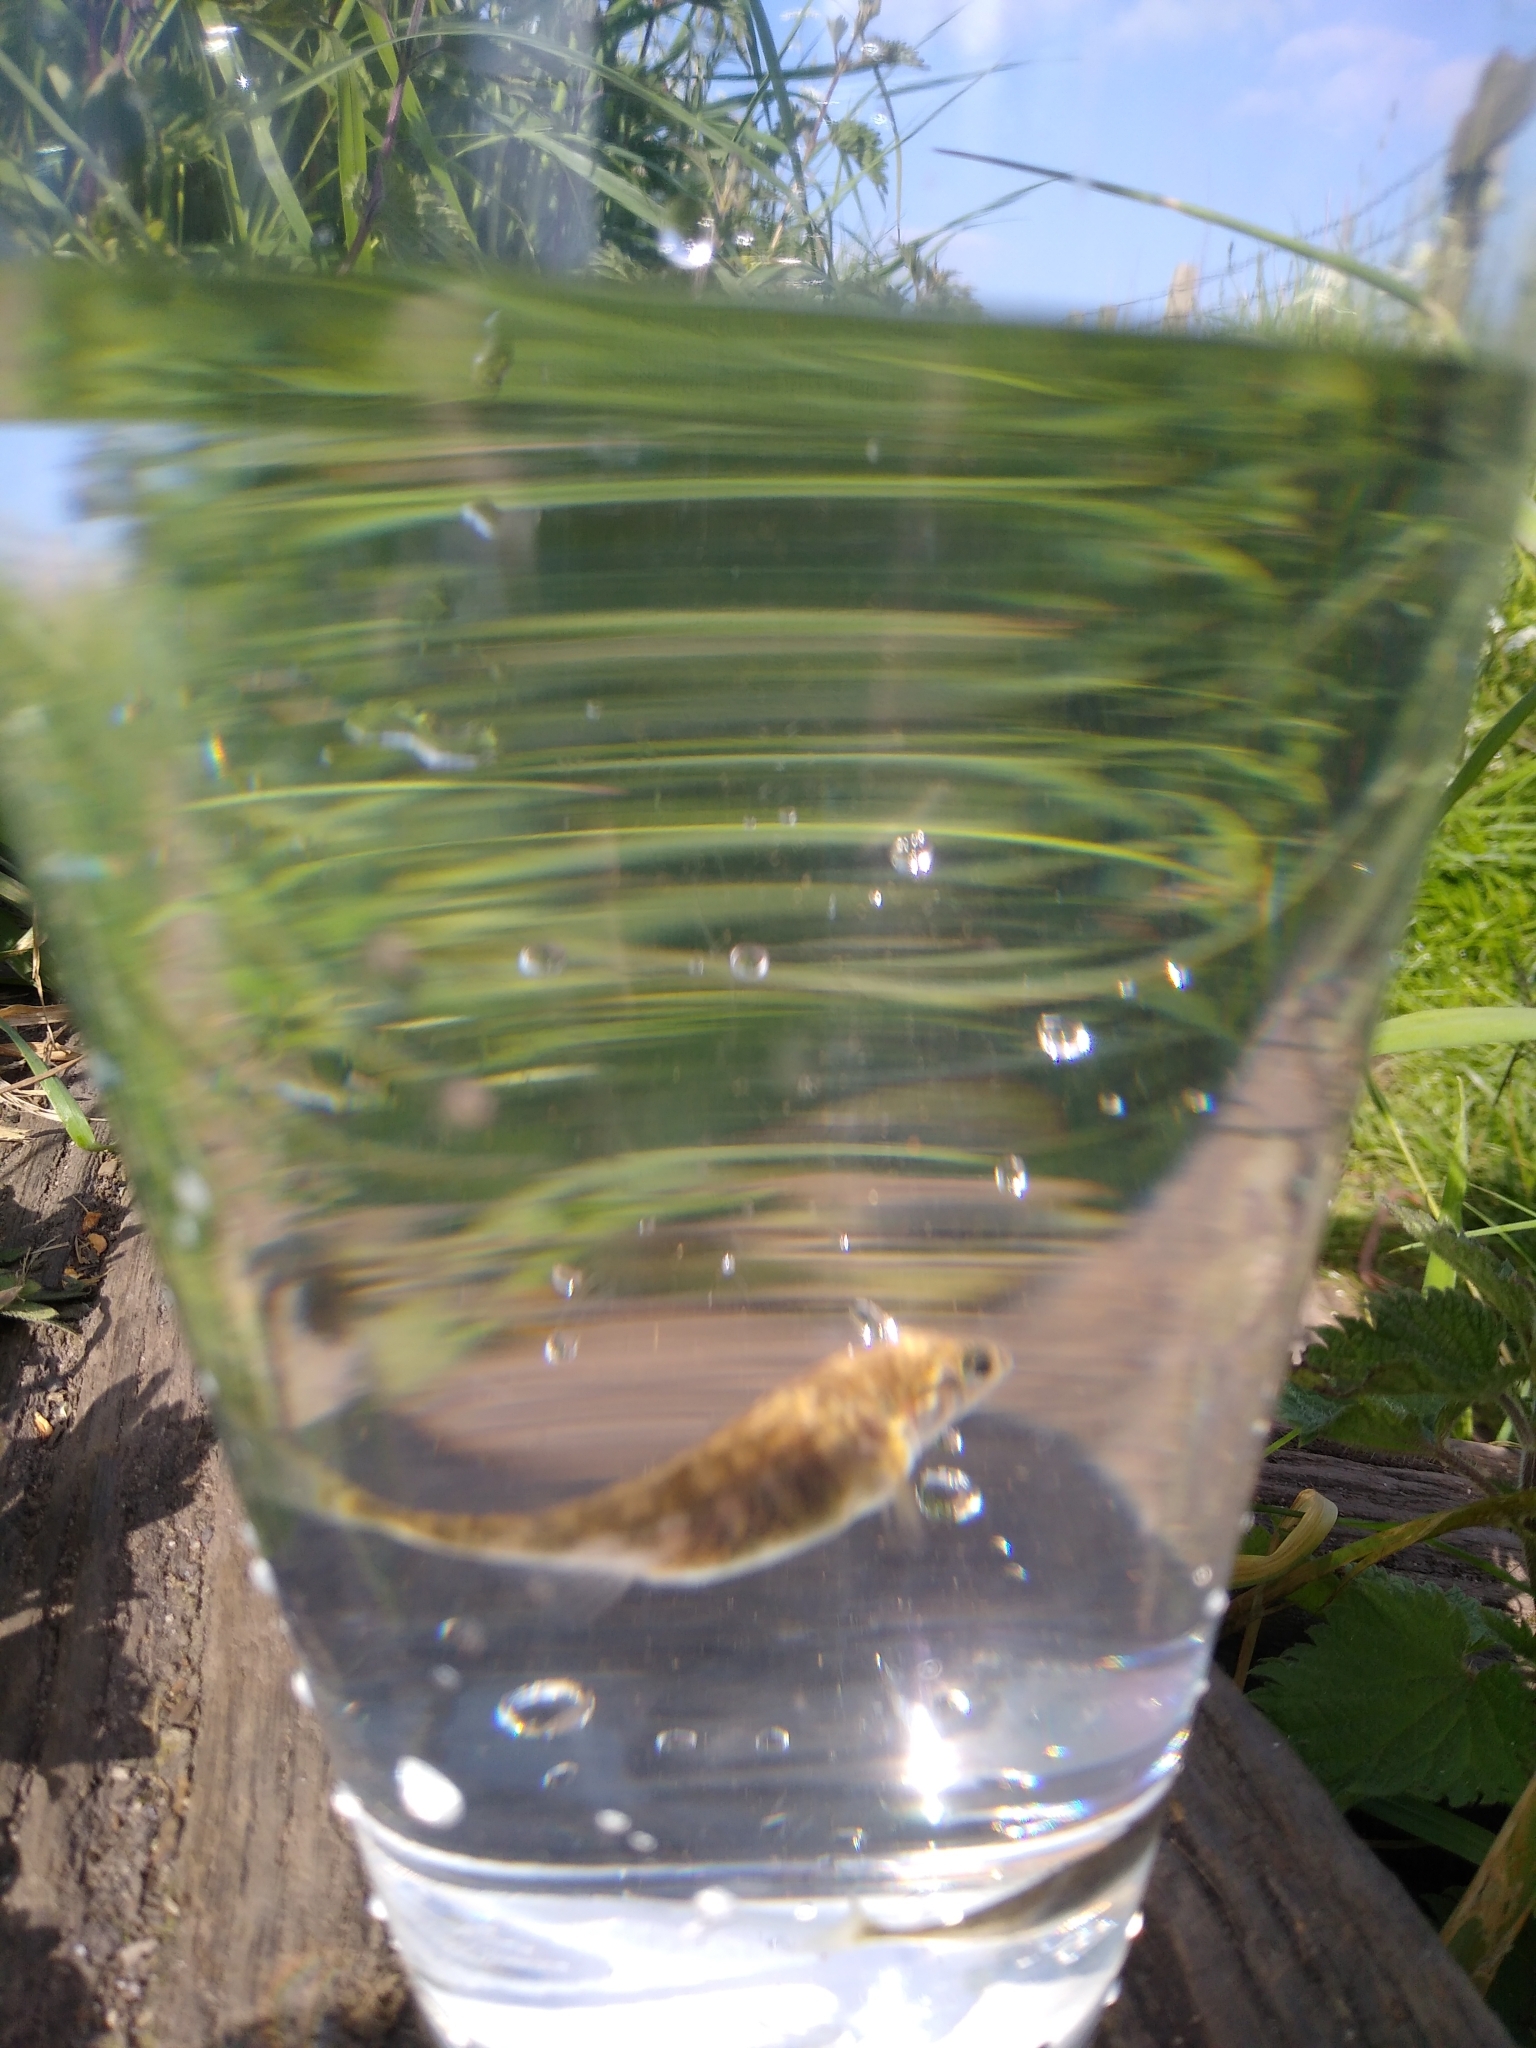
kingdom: Animalia
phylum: Chordata
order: Gasterosteiformes
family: Gasterosteidae
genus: Gasterosteus
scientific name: Gasterosteus aculeatus
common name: Three-spined stickleback
